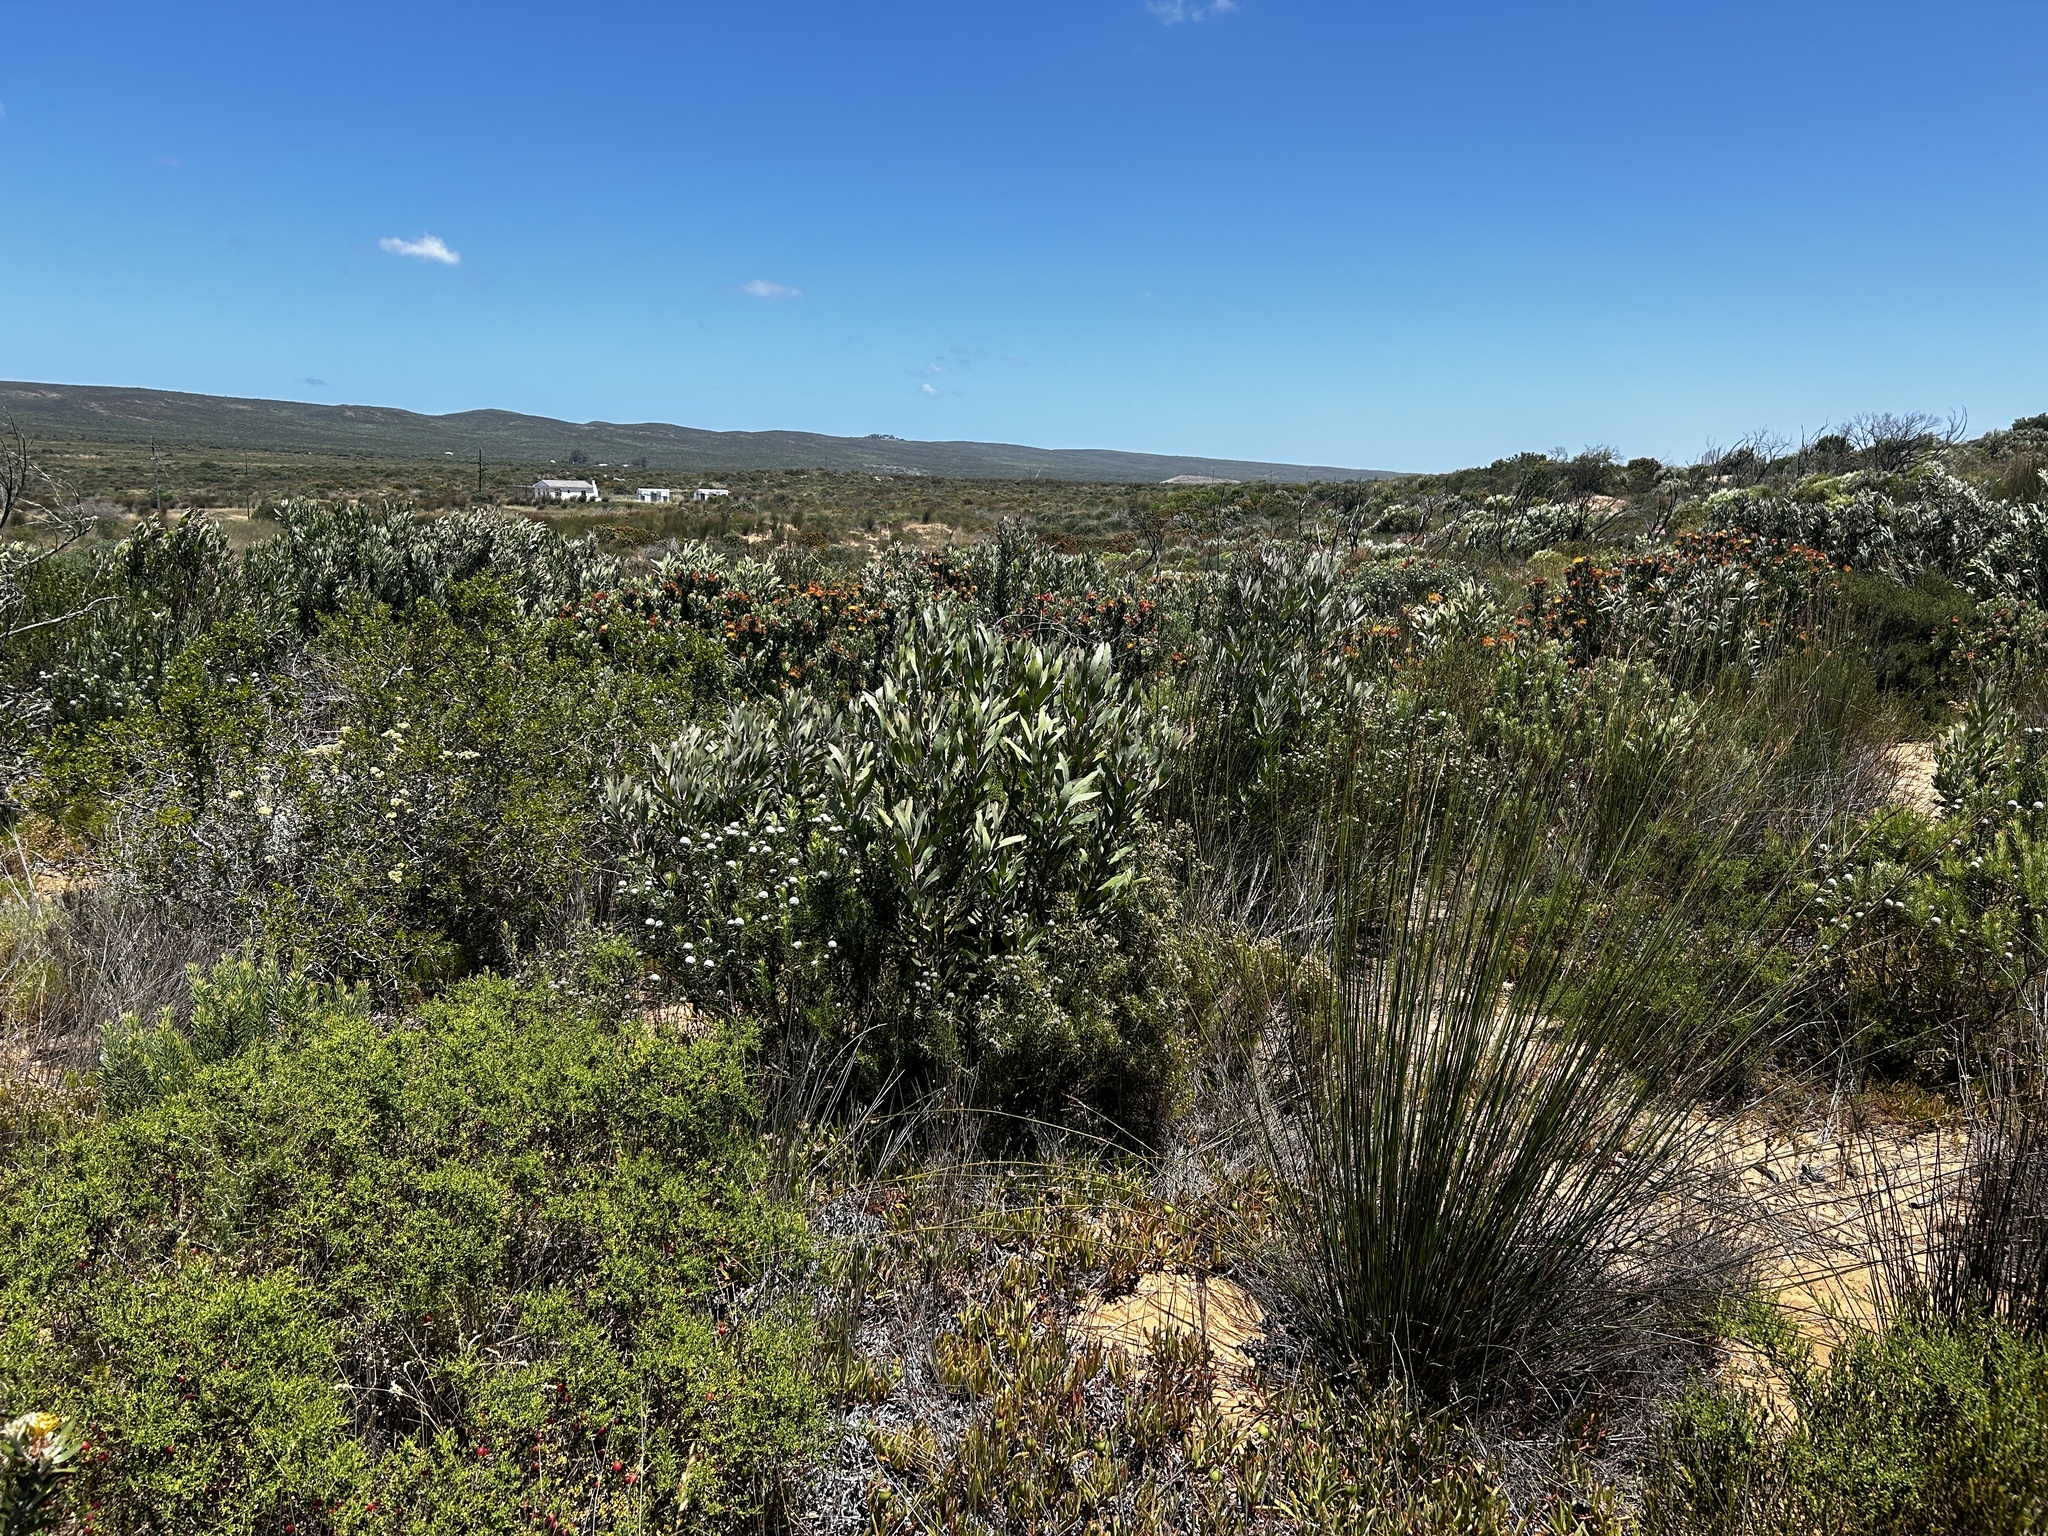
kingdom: Plantae
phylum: Tracheophyta
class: Magnoliopsida
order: Proteales
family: Proteaceae
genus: Leucadendron
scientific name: Leucadendron galpinii
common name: Hairless conebush
